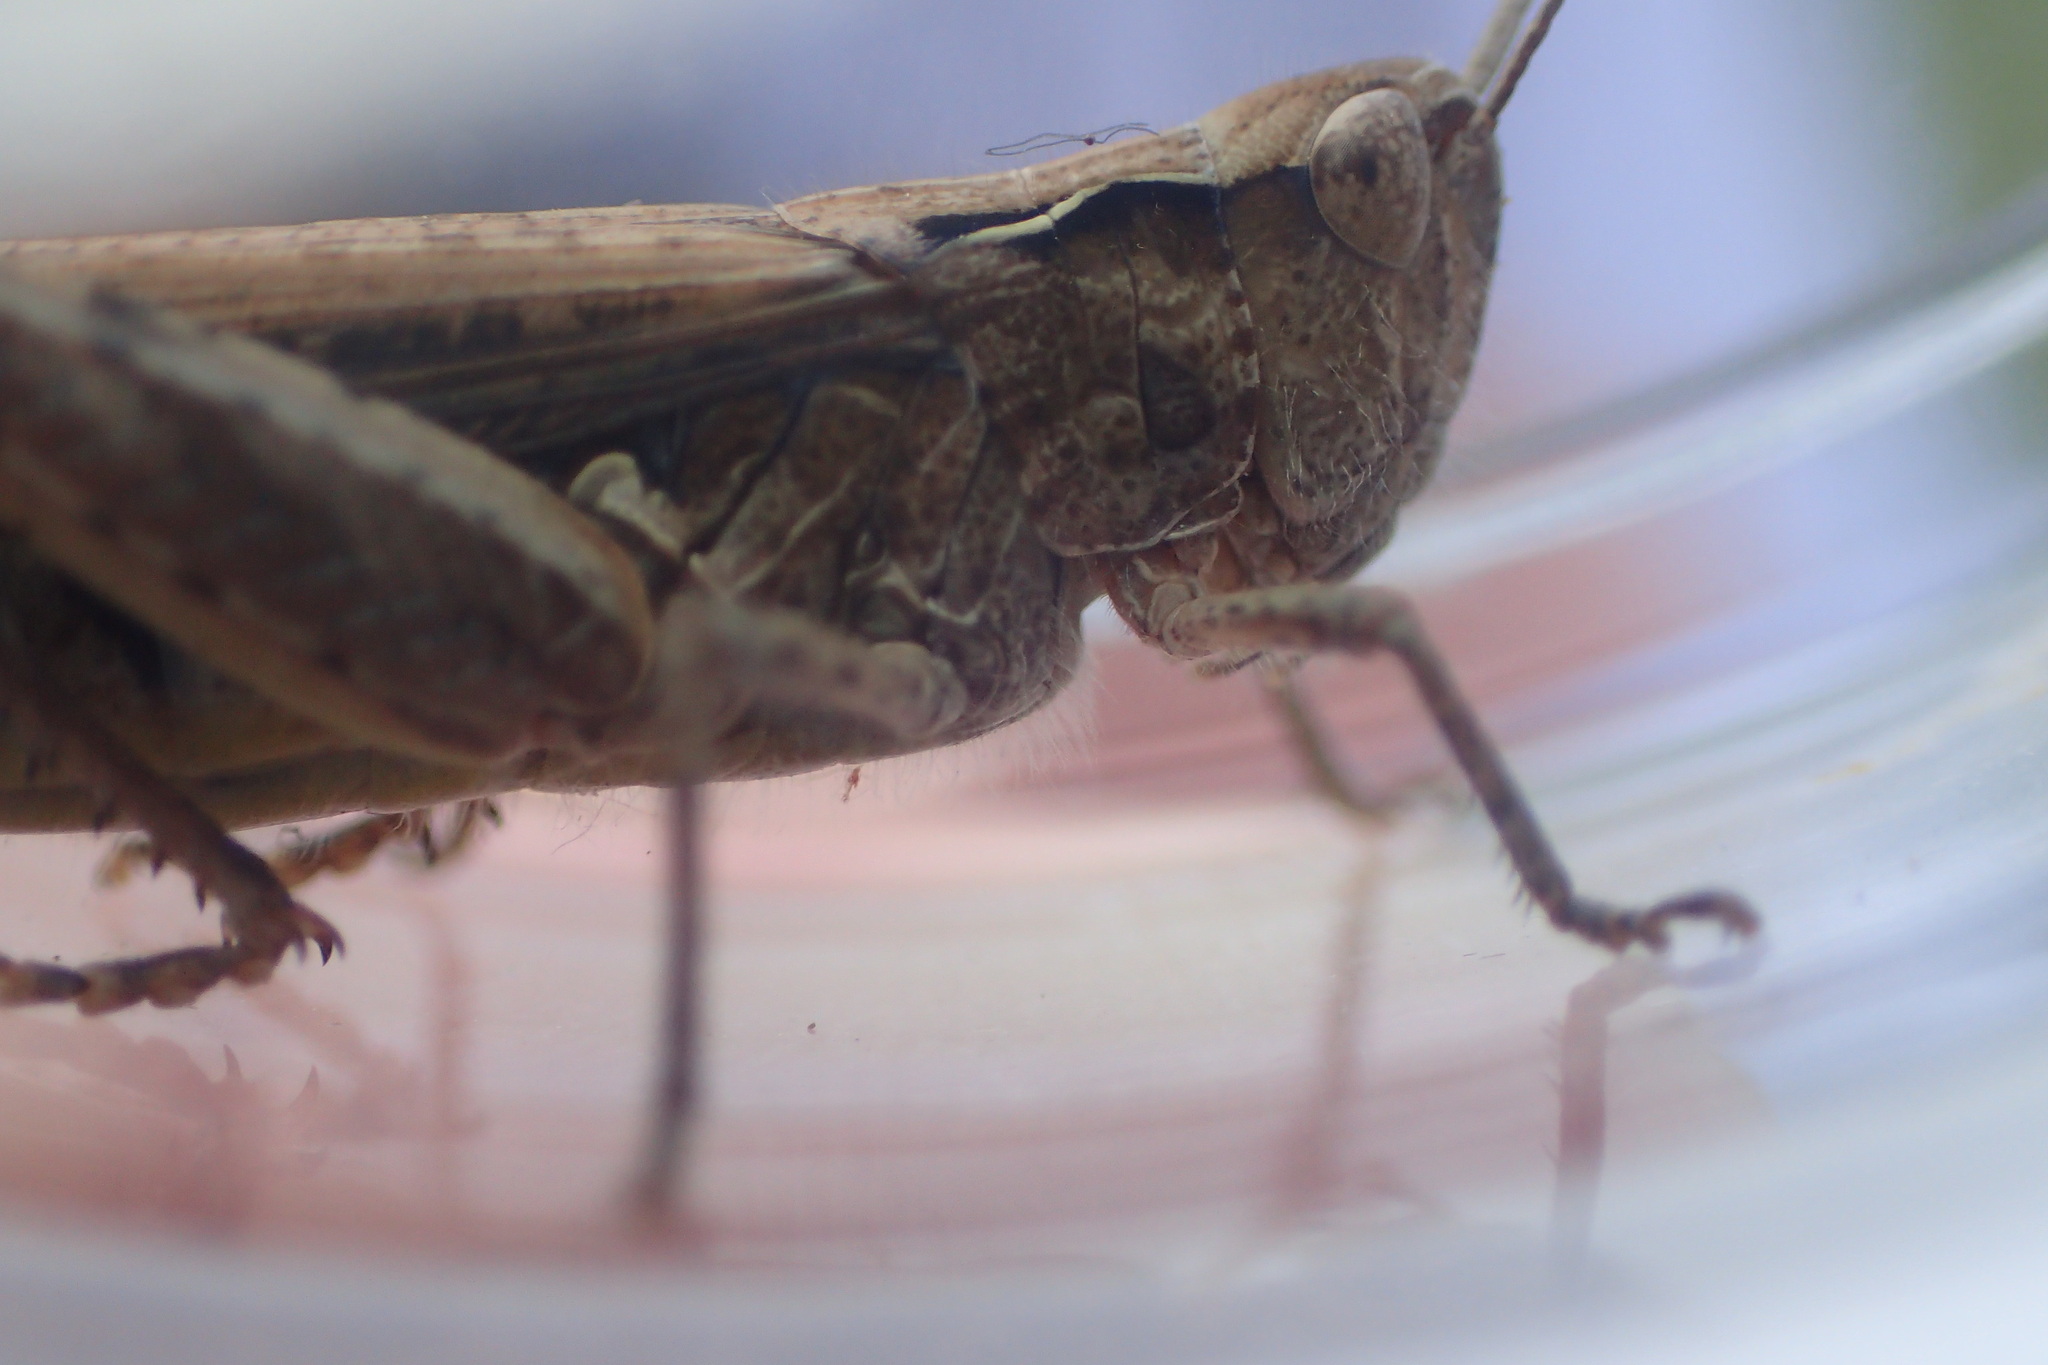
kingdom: Animalia
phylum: Arthropoda
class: Insecta
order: Orthoptera
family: Acrididae
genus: Chorthippus
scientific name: Chorthippus brunneus
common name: Field grasshopper
